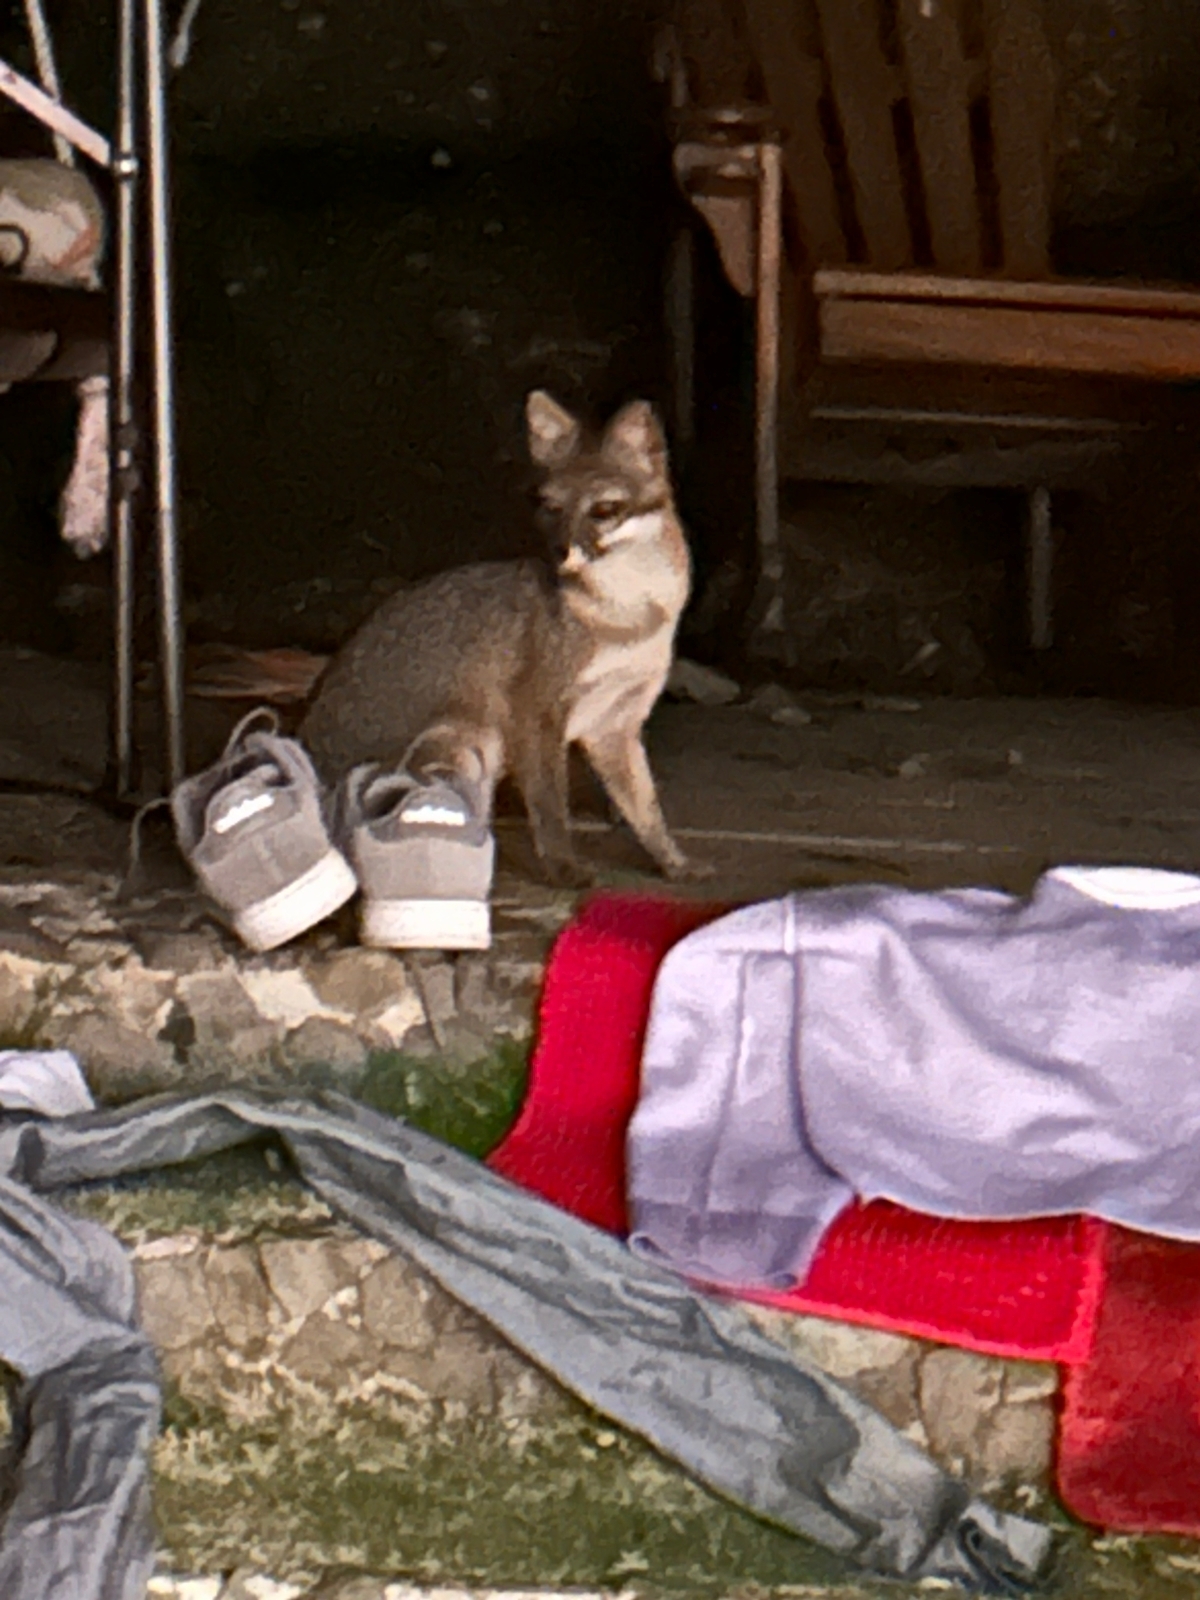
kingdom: Animalia
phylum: Chordata
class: Mammalia
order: Carnivora
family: Canidae
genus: Urocyon
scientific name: Urocyon cinereoargenteus
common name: Gray fox
